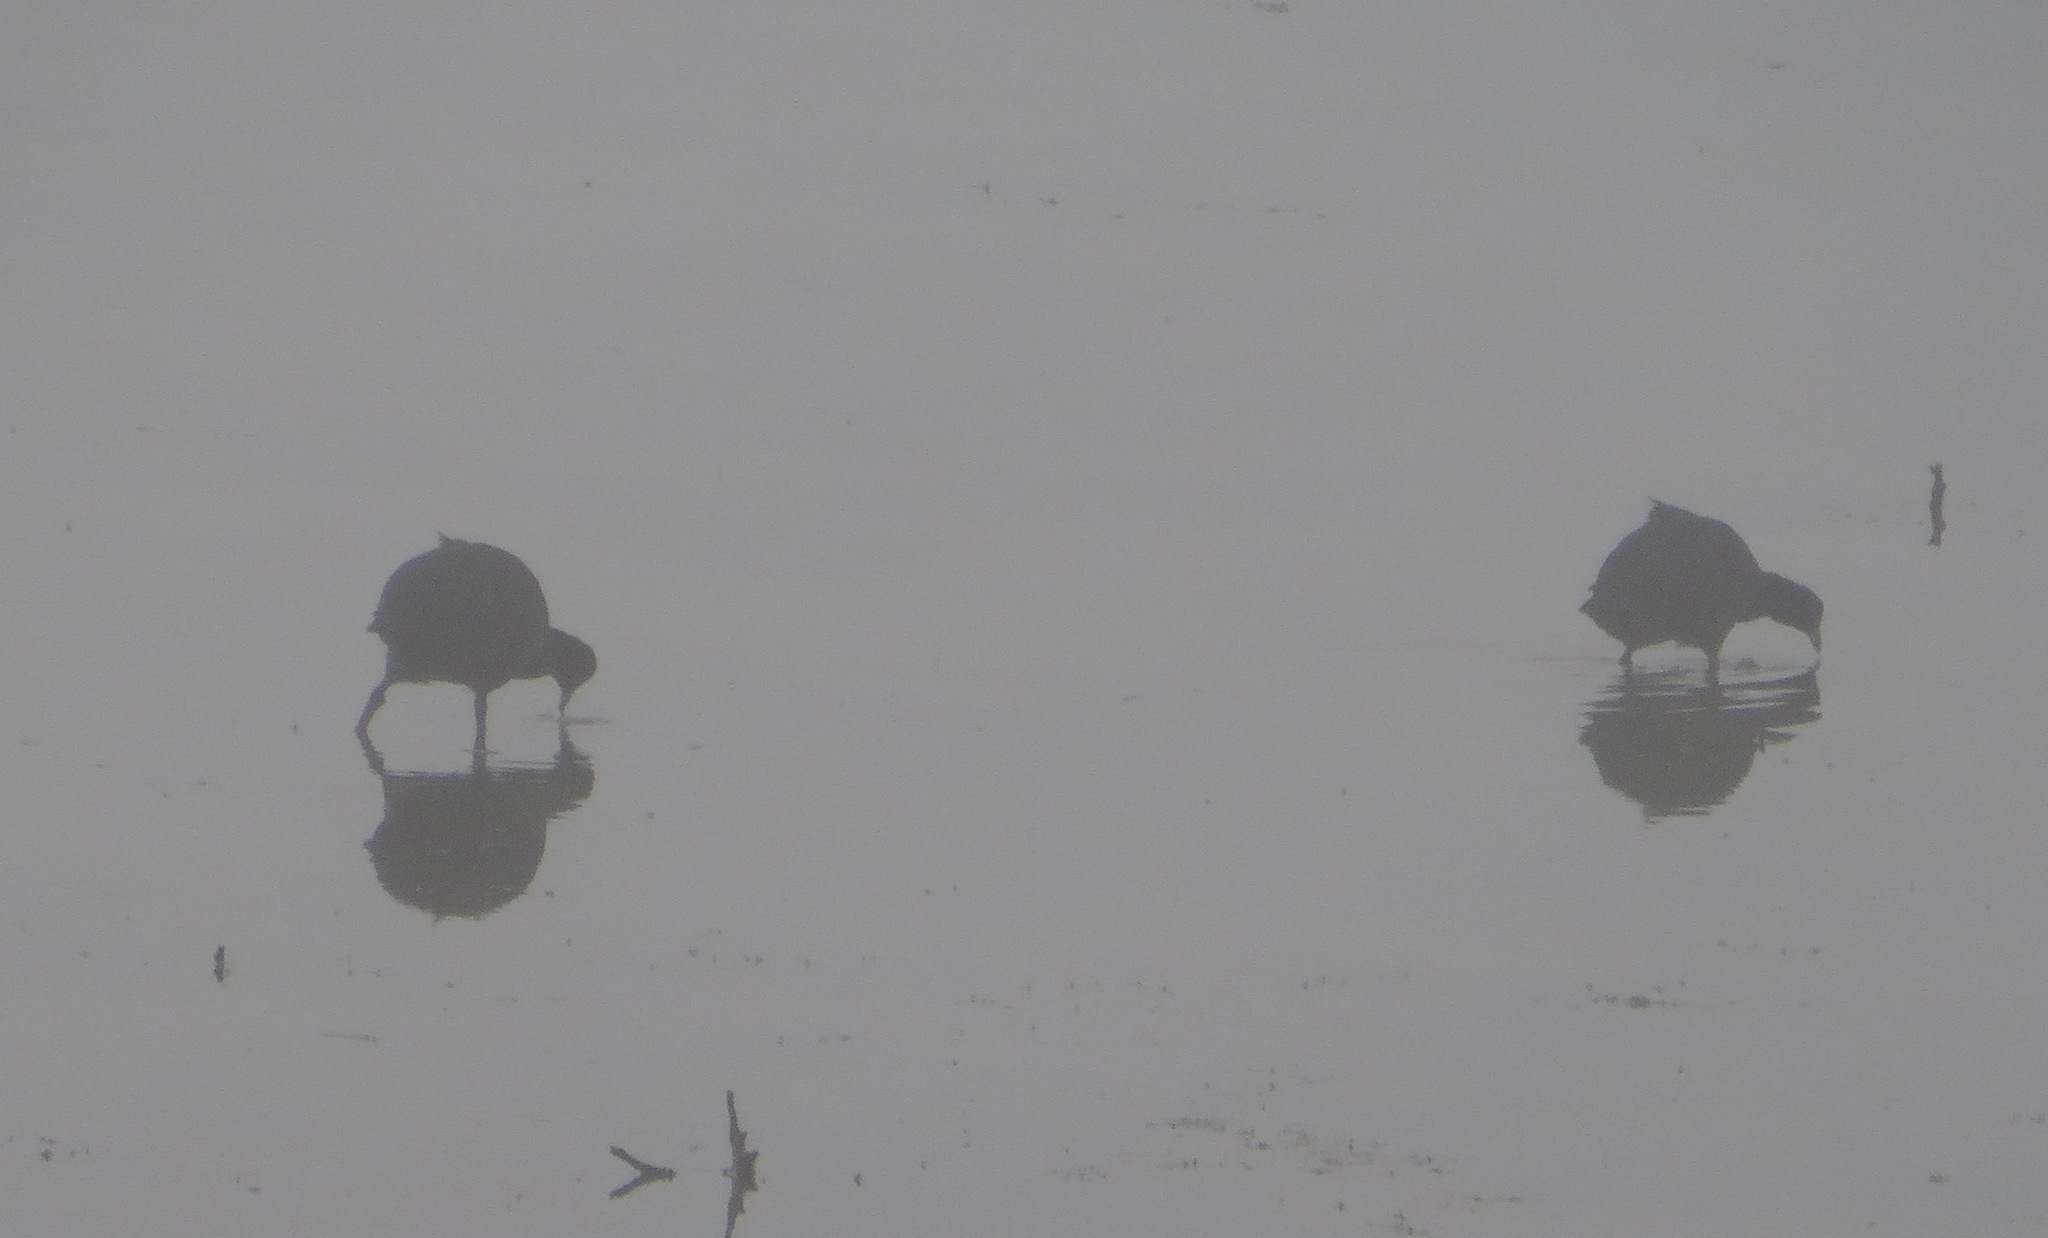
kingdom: Animalia
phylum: Chordata
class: Aves
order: Gruiformes
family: Rallidae
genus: Fulica
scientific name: Fulica cristata
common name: Red-knobbed coot
